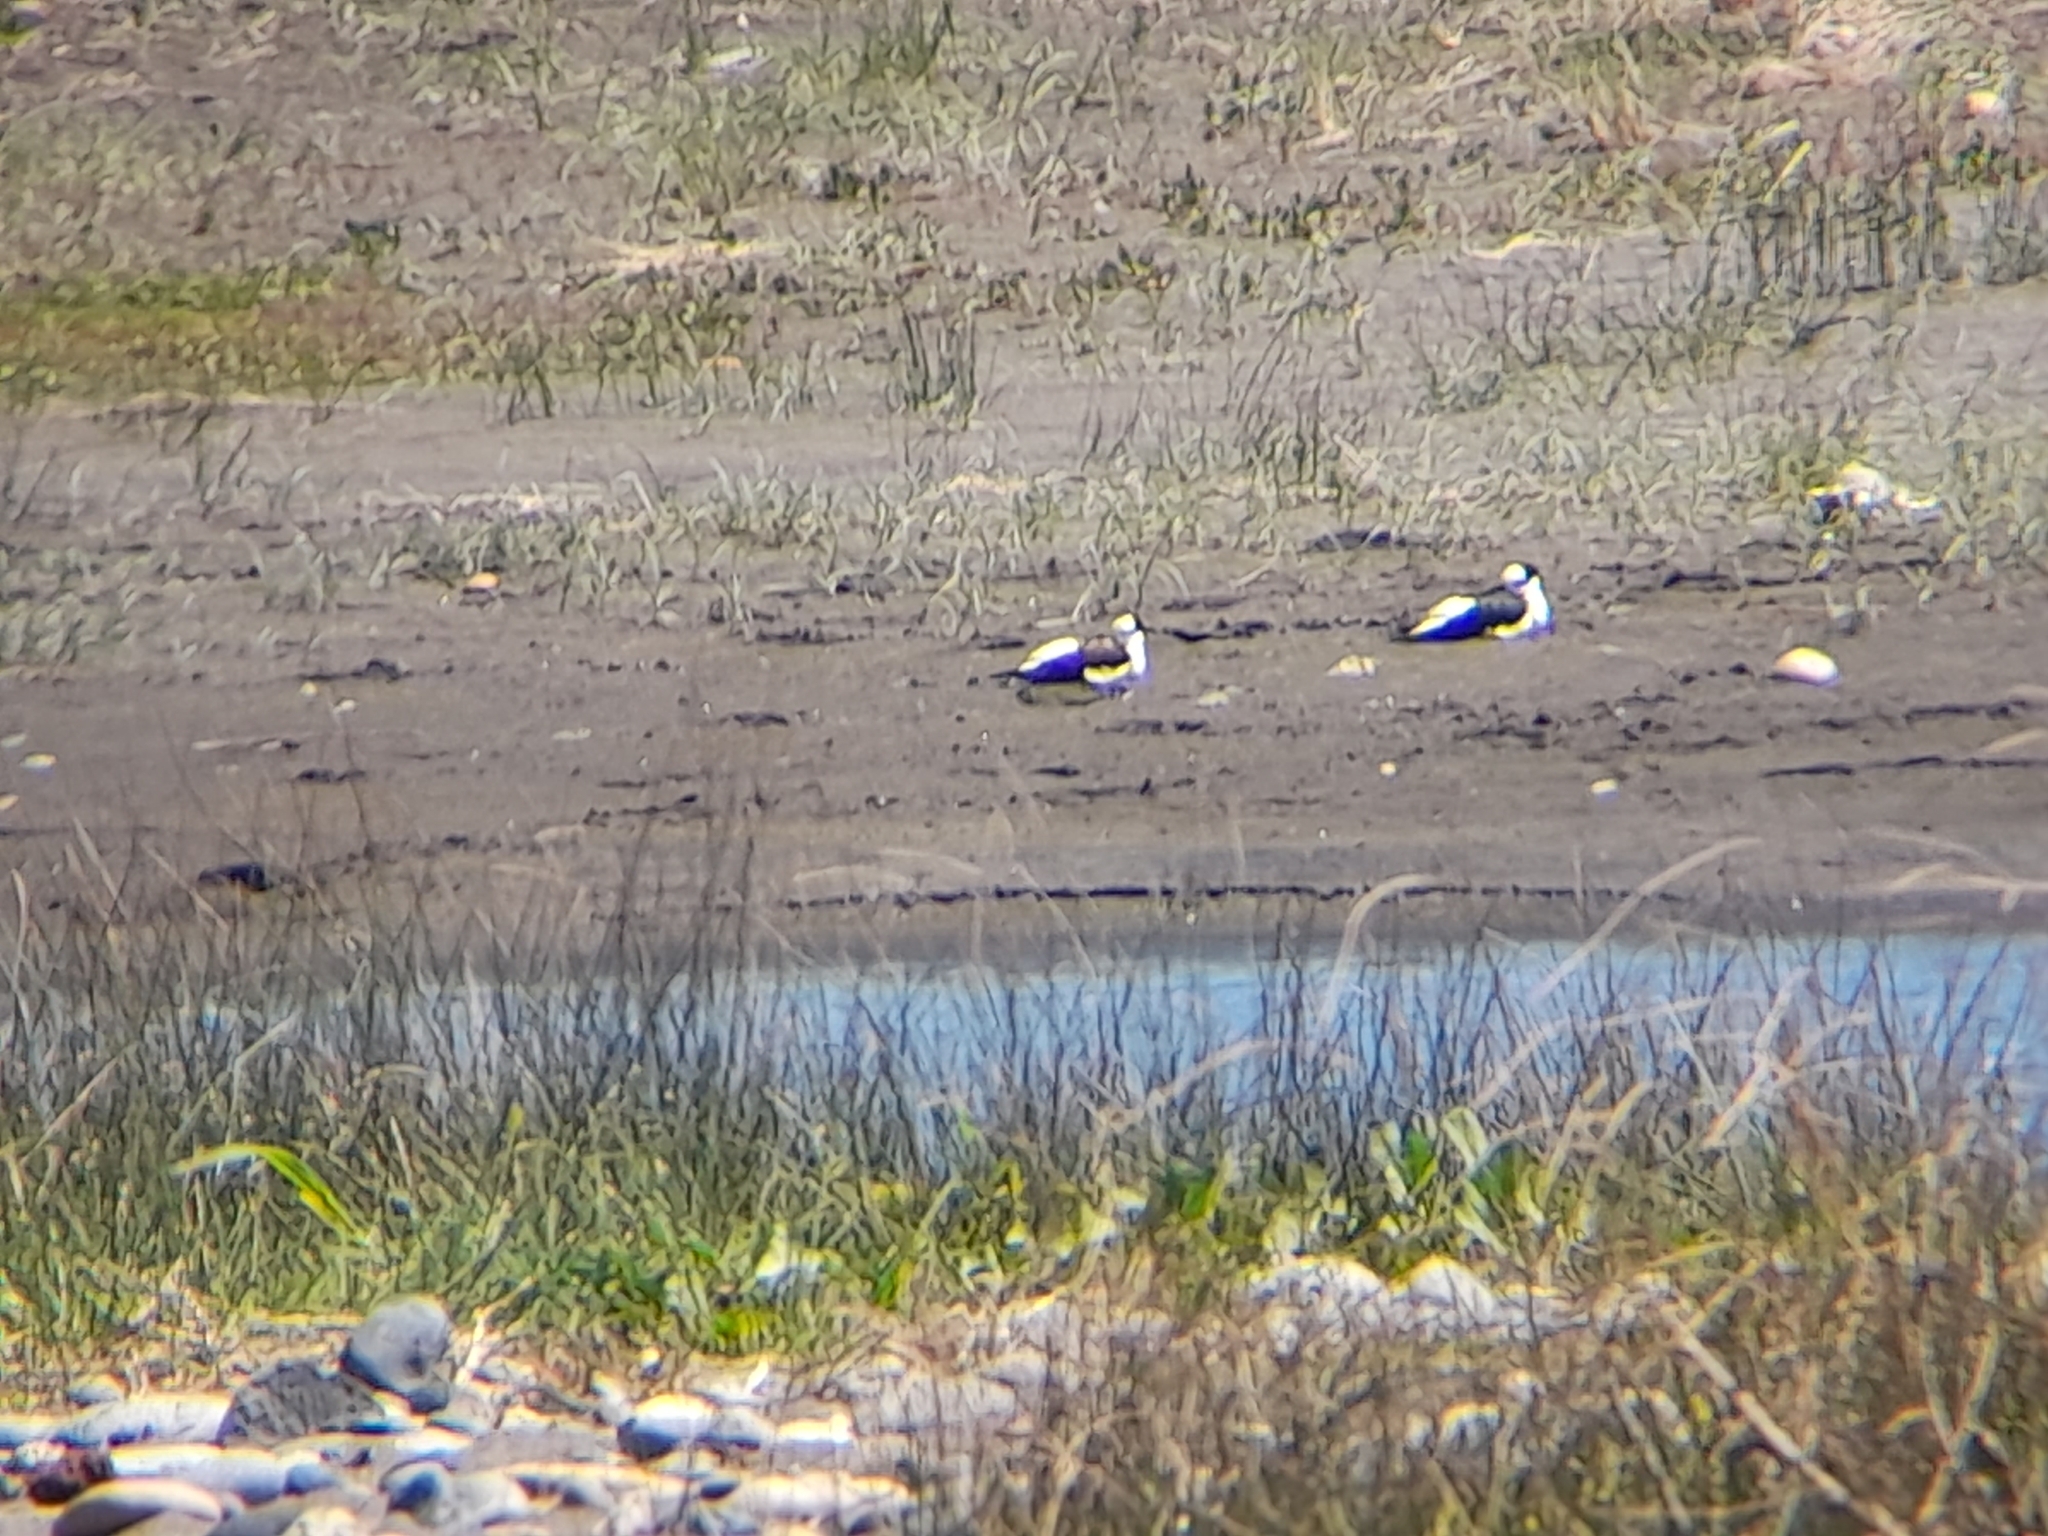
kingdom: Animalia
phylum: Chordata
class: Aves
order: Charadriiformes
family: Recurvirostridae
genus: Himantopus
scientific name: Himantopus mexicanus
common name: Black-necked stilt
